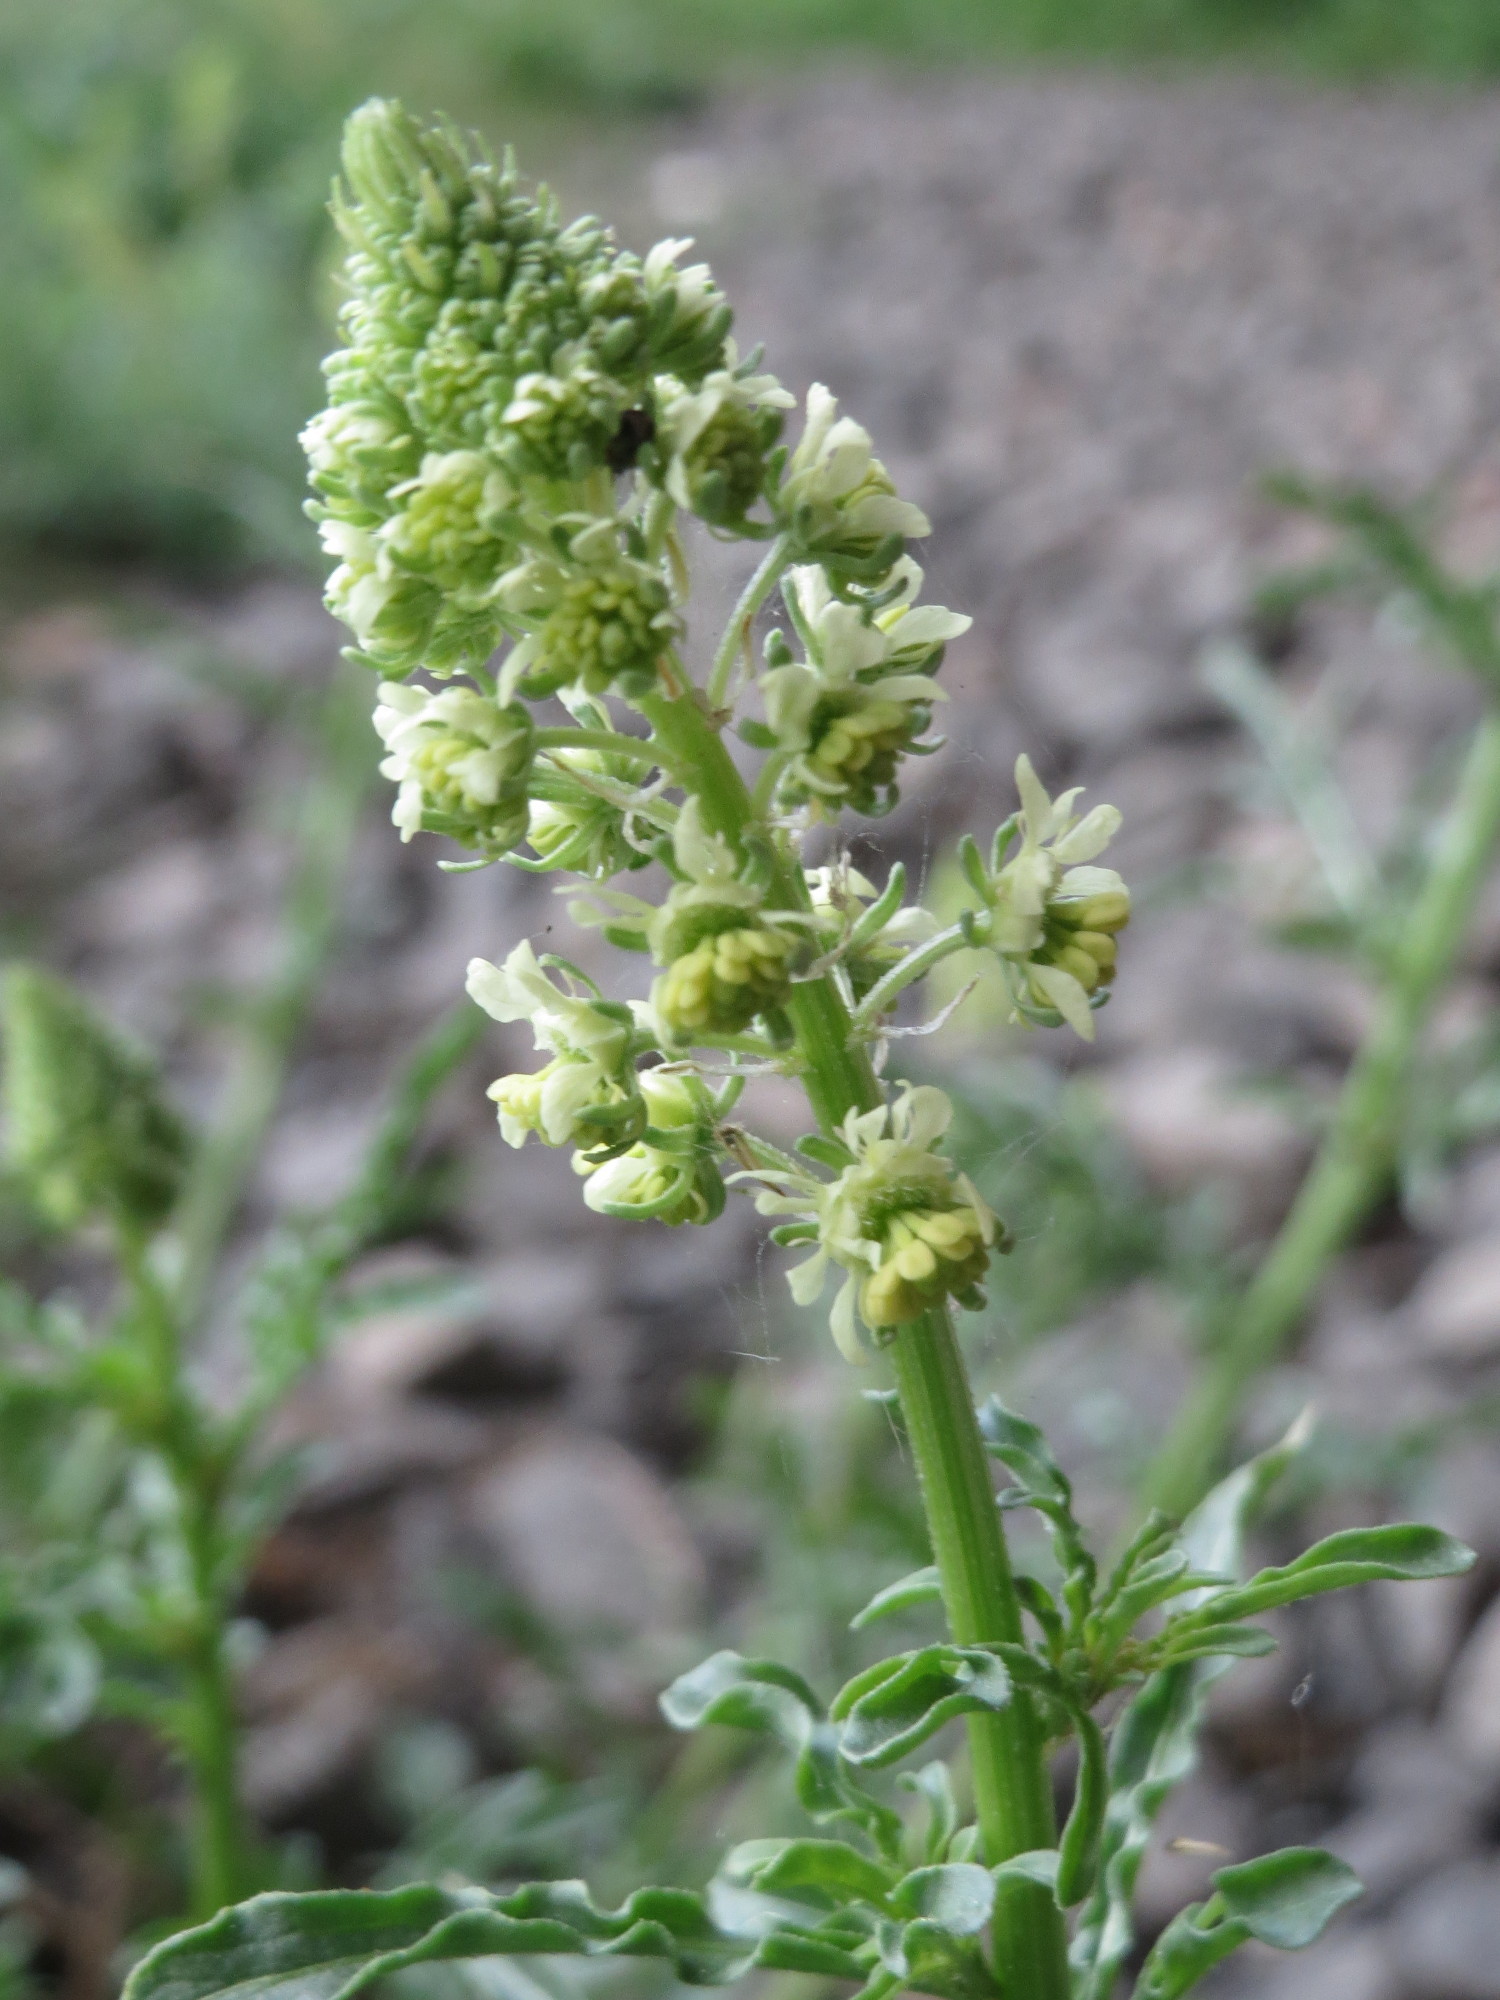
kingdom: Plantae
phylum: Tracheophyta
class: Magnoliopsida
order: Brassicales
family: Resedaceae
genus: Reseda
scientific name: Reseda lutea
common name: Wild mignonette
